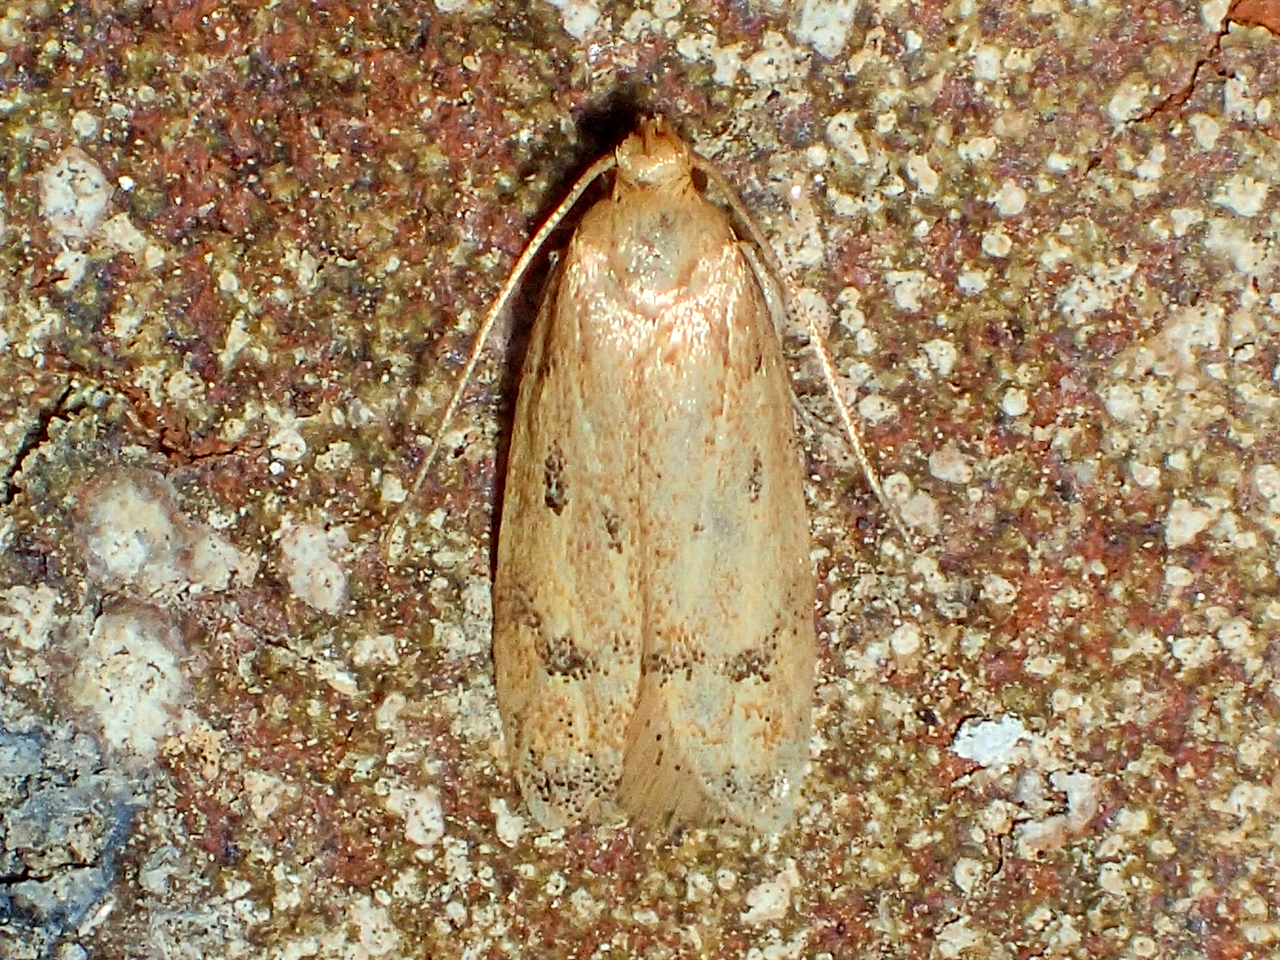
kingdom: Animalia
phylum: Arthropoda
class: Insecta
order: Lepidoptera
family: Autostichidae
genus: Gerdana
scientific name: Gerdana caritella
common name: Gerdana moth
